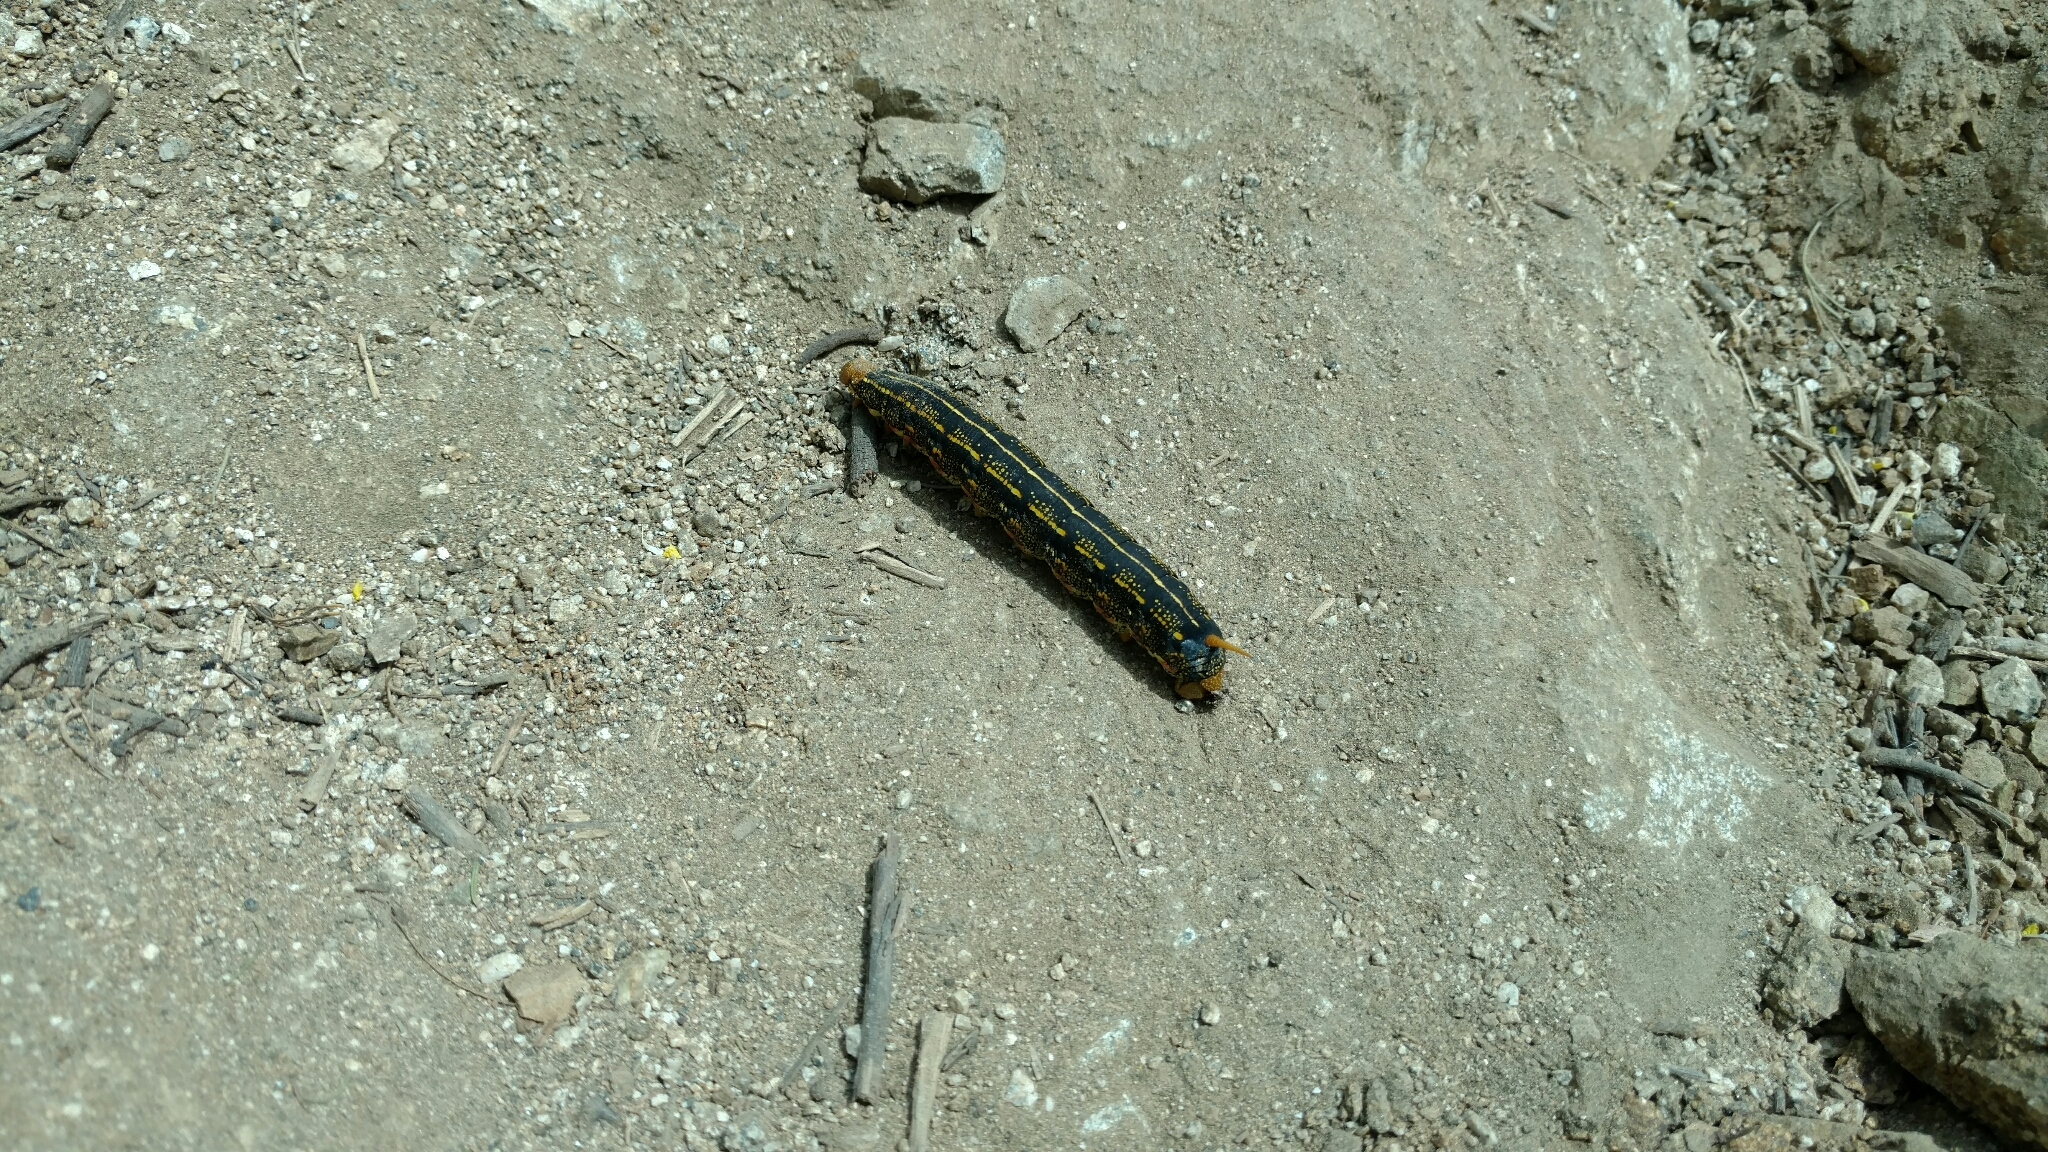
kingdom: Animalia
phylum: Arthropoda
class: Insecta
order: Lepidoptera
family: Sphingidae
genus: Hyles
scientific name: Hyles lineata
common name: White-lined sphinx
